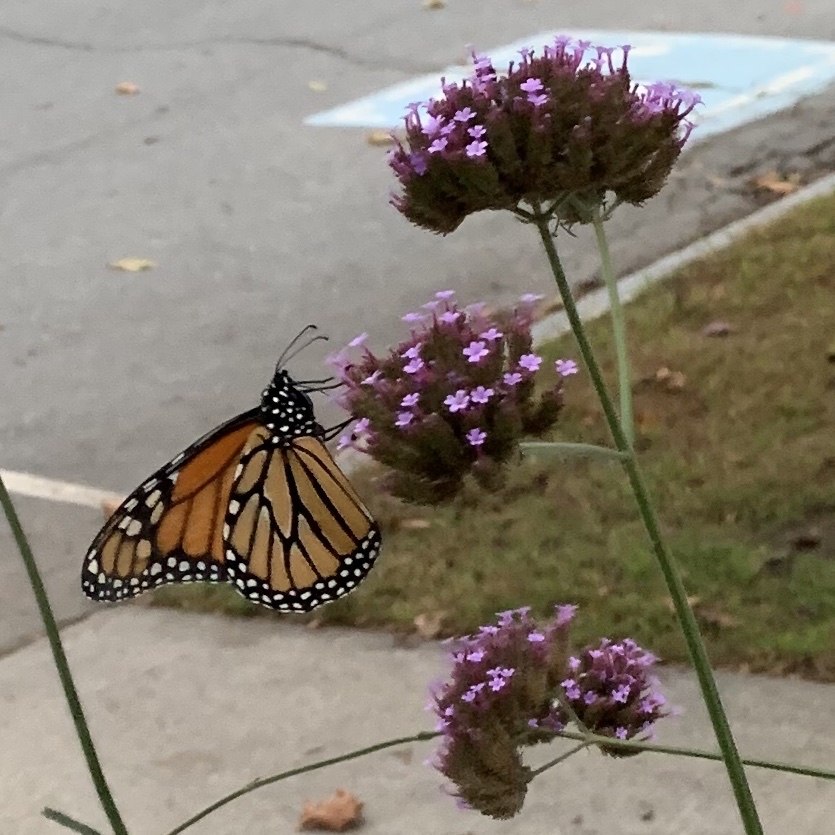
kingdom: Animalia
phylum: Arthropoda
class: Insecta
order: Lepidoptera
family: Nymphalidae
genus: Danaus
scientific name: Danaus plexippus
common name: Monarch
